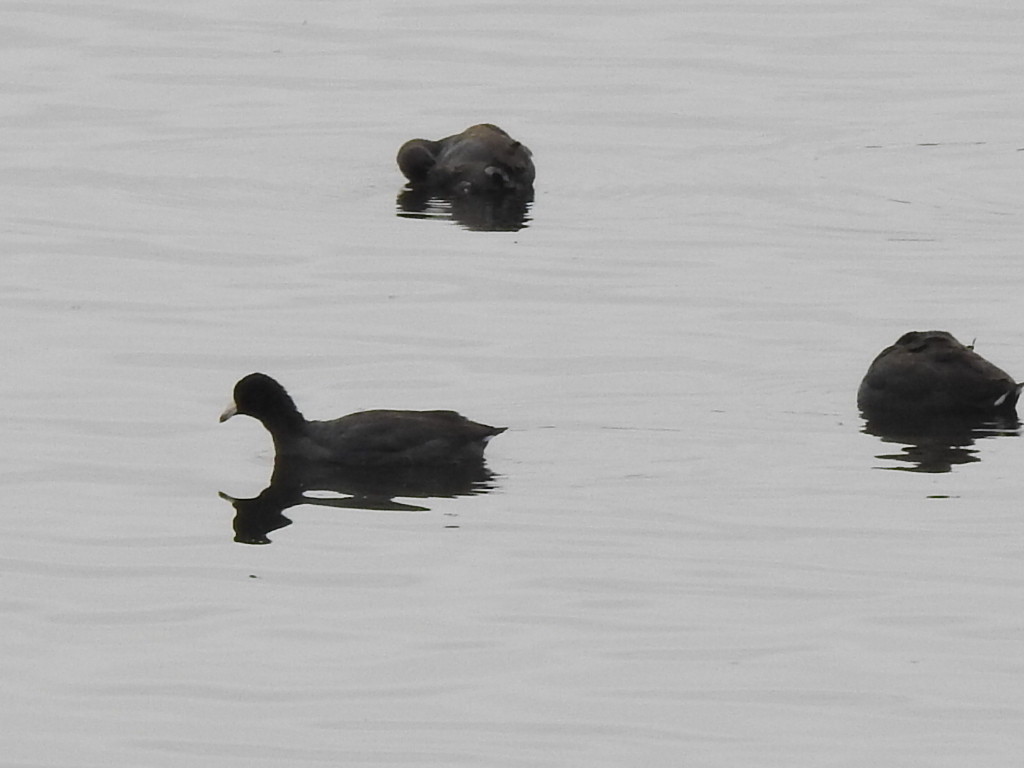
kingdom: Animalia
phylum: Chordata
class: Aves
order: Gruiformes
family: Rallidae
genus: Fulica
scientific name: Fulica americana
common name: American coot
